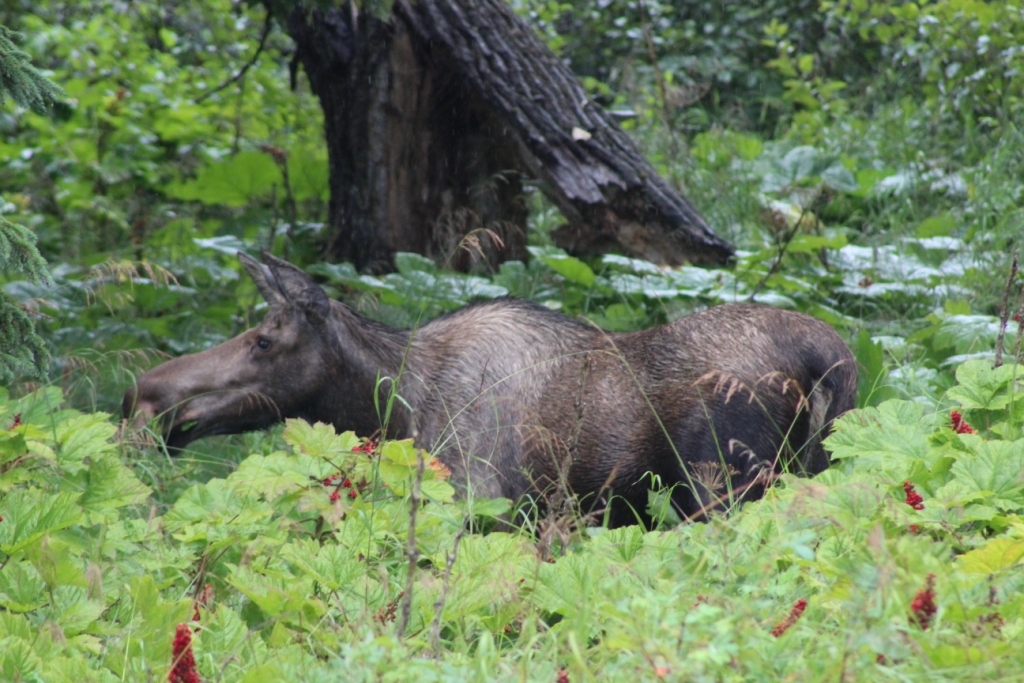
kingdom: Animalia
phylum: Chordata
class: Mammalia
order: Artiodactyla
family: Cervidae
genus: Alces
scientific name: Alces alces
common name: Moose
